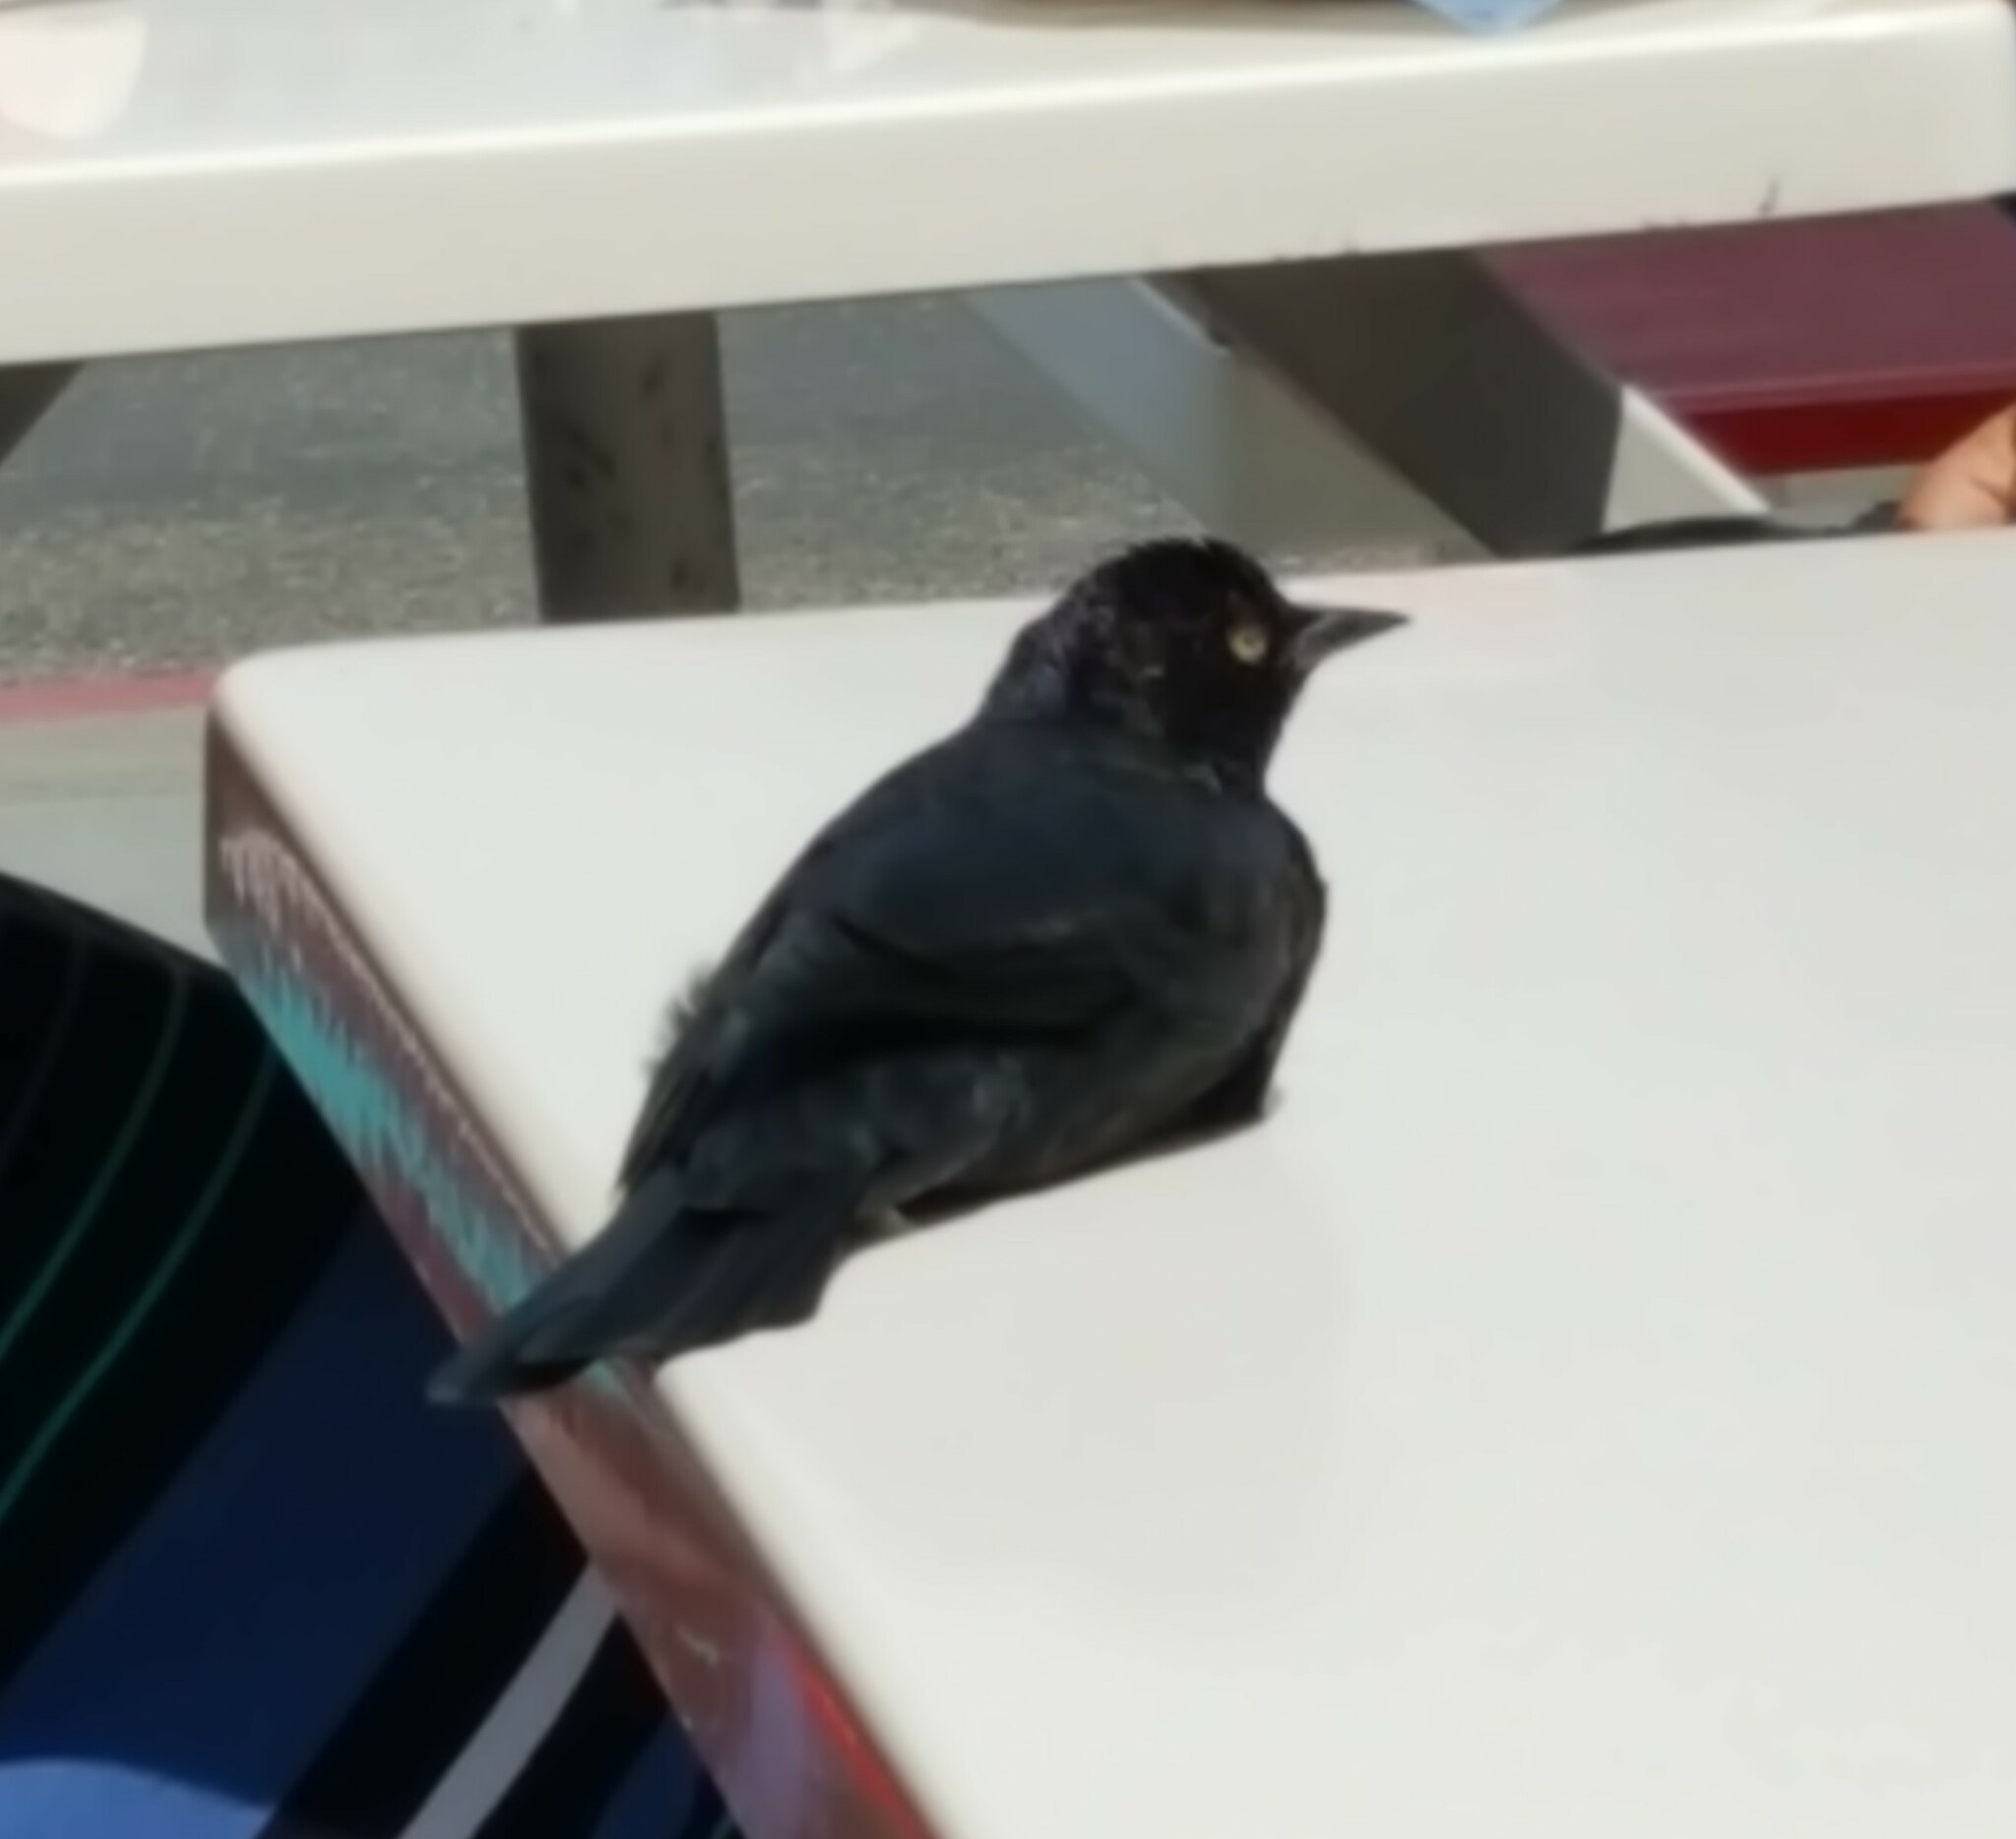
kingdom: Animalia
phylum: Chordata
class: Aves
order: Passeriformes
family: Icteridae
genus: Euphagus
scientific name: Euphagus cyanocephalus
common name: Brewer's blackbird
